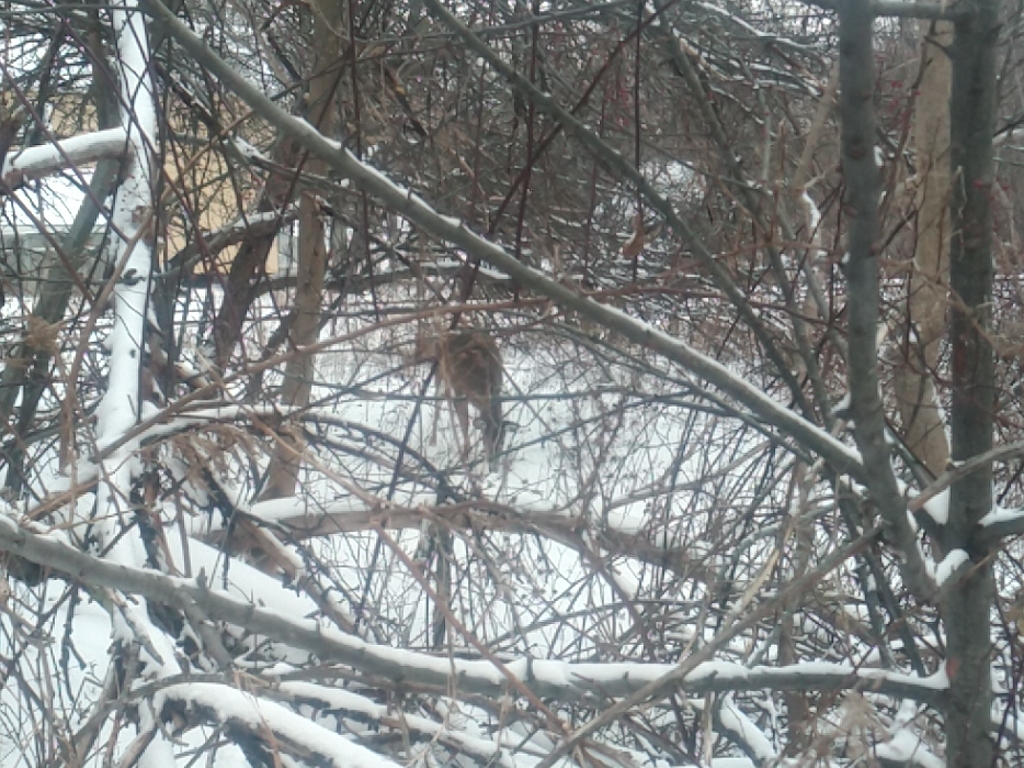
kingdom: Animalia
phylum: Chordata
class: Mammalia
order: Artiodactyla
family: Cervidae
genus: Odocoileus
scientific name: Odocoileus virginianus
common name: White-tailed deer
